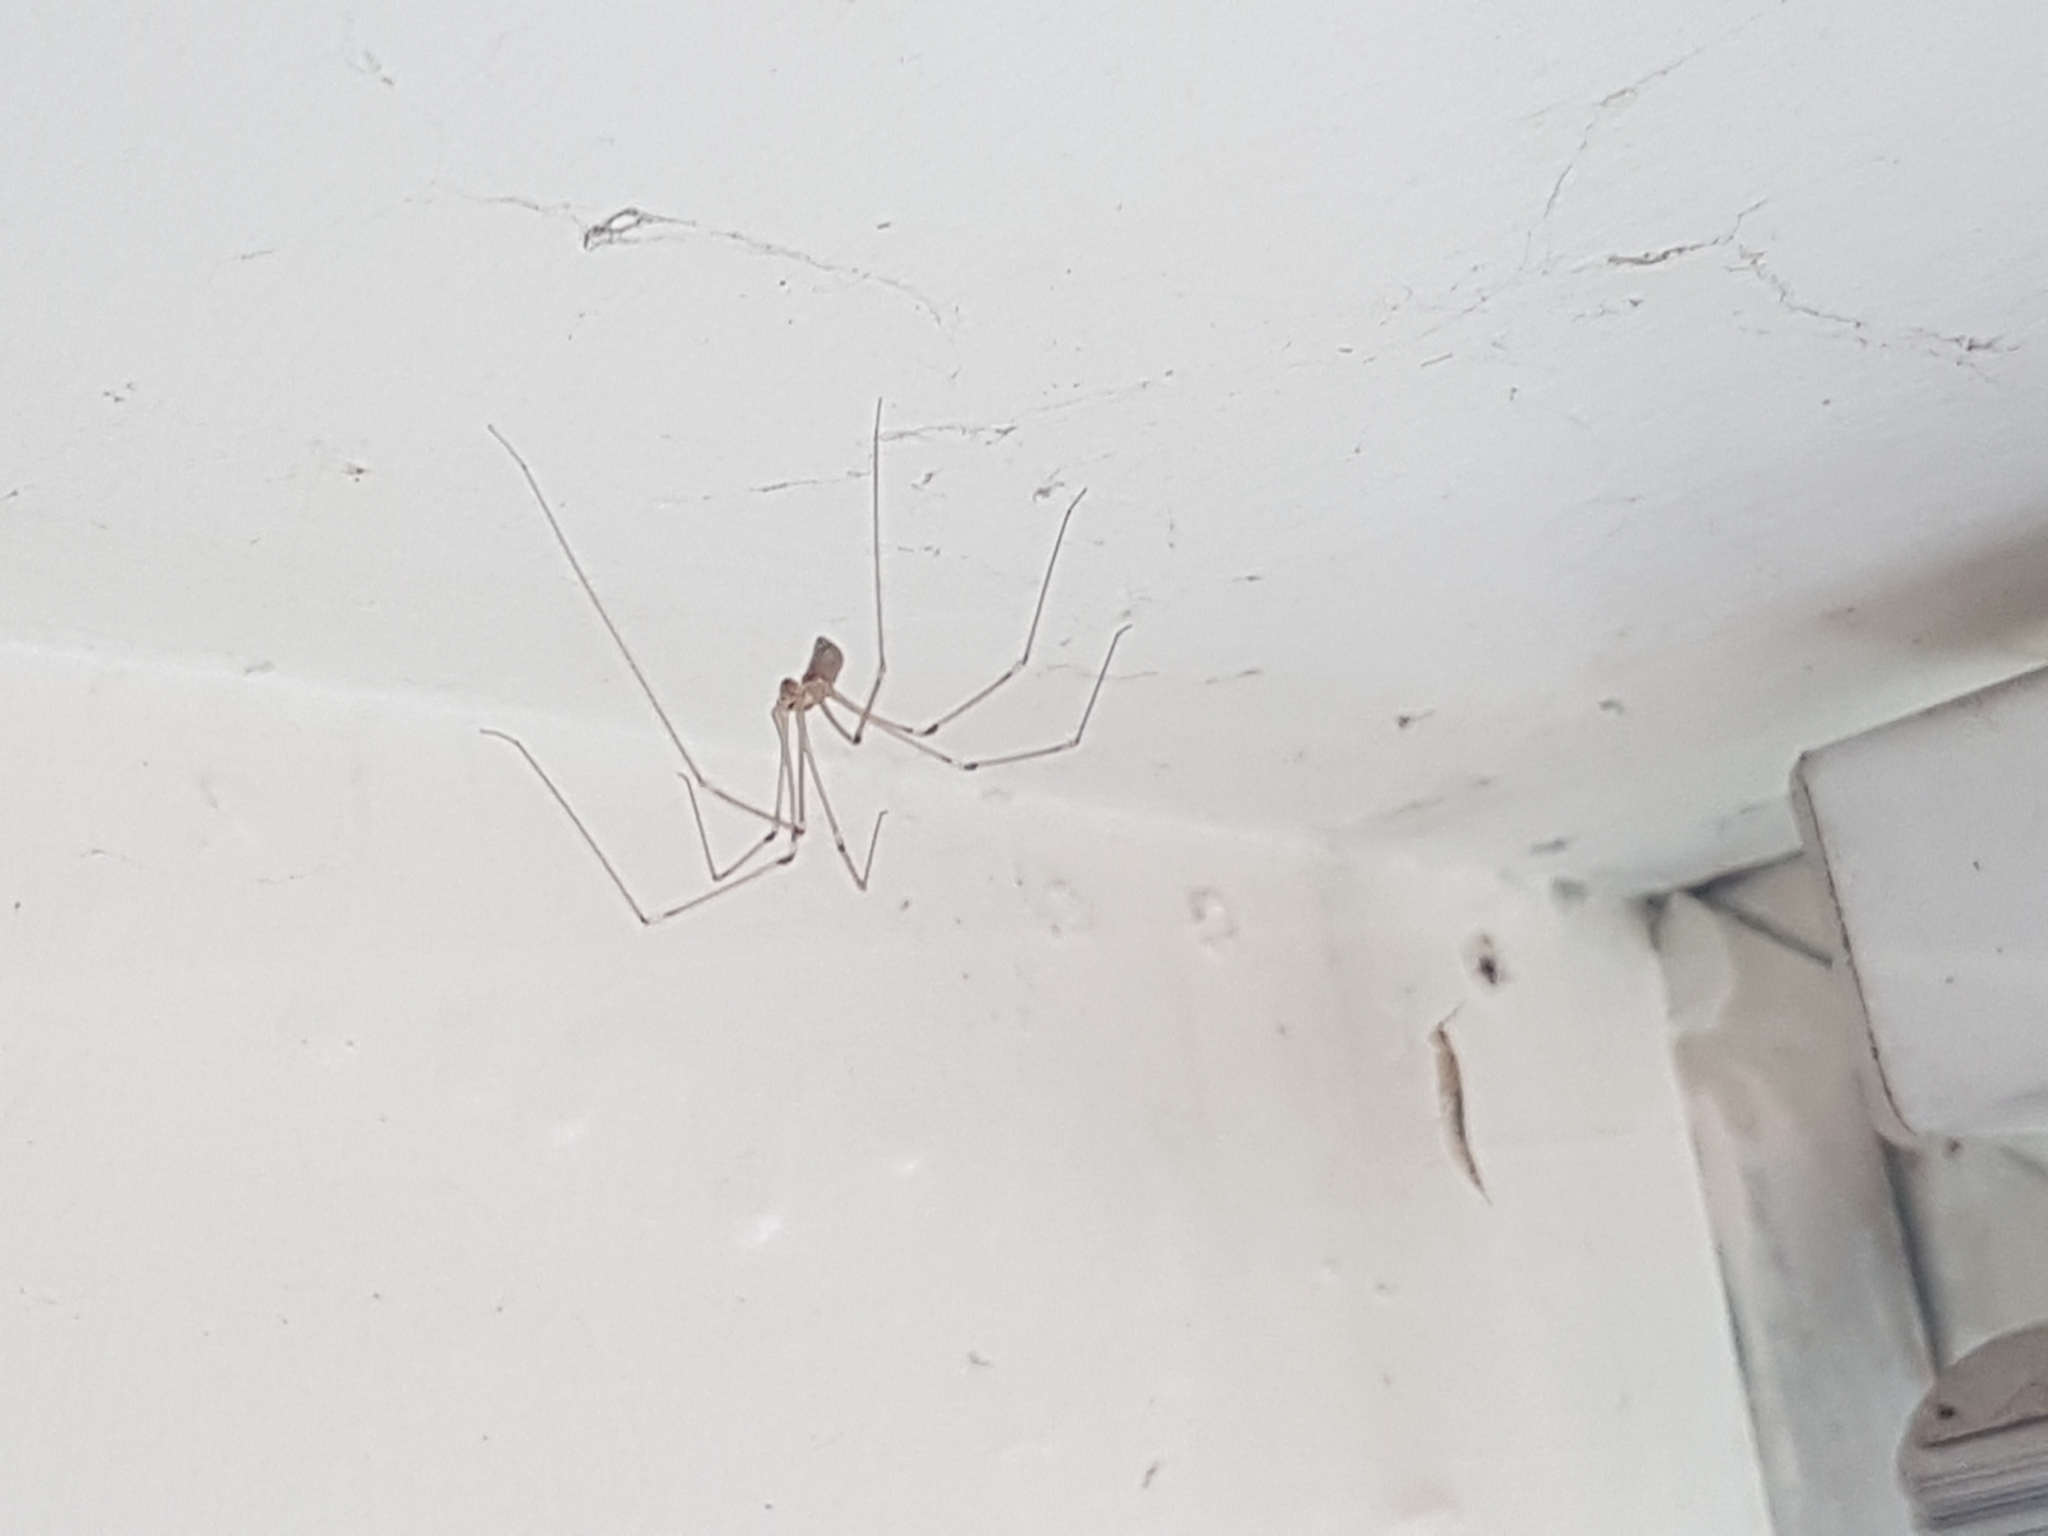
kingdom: Animalia
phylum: Arthropoda
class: Arachnida
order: Araneae
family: Pholcidae
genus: Pholcus
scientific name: Pholcus phalangioides
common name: Longbodied cellar spider
